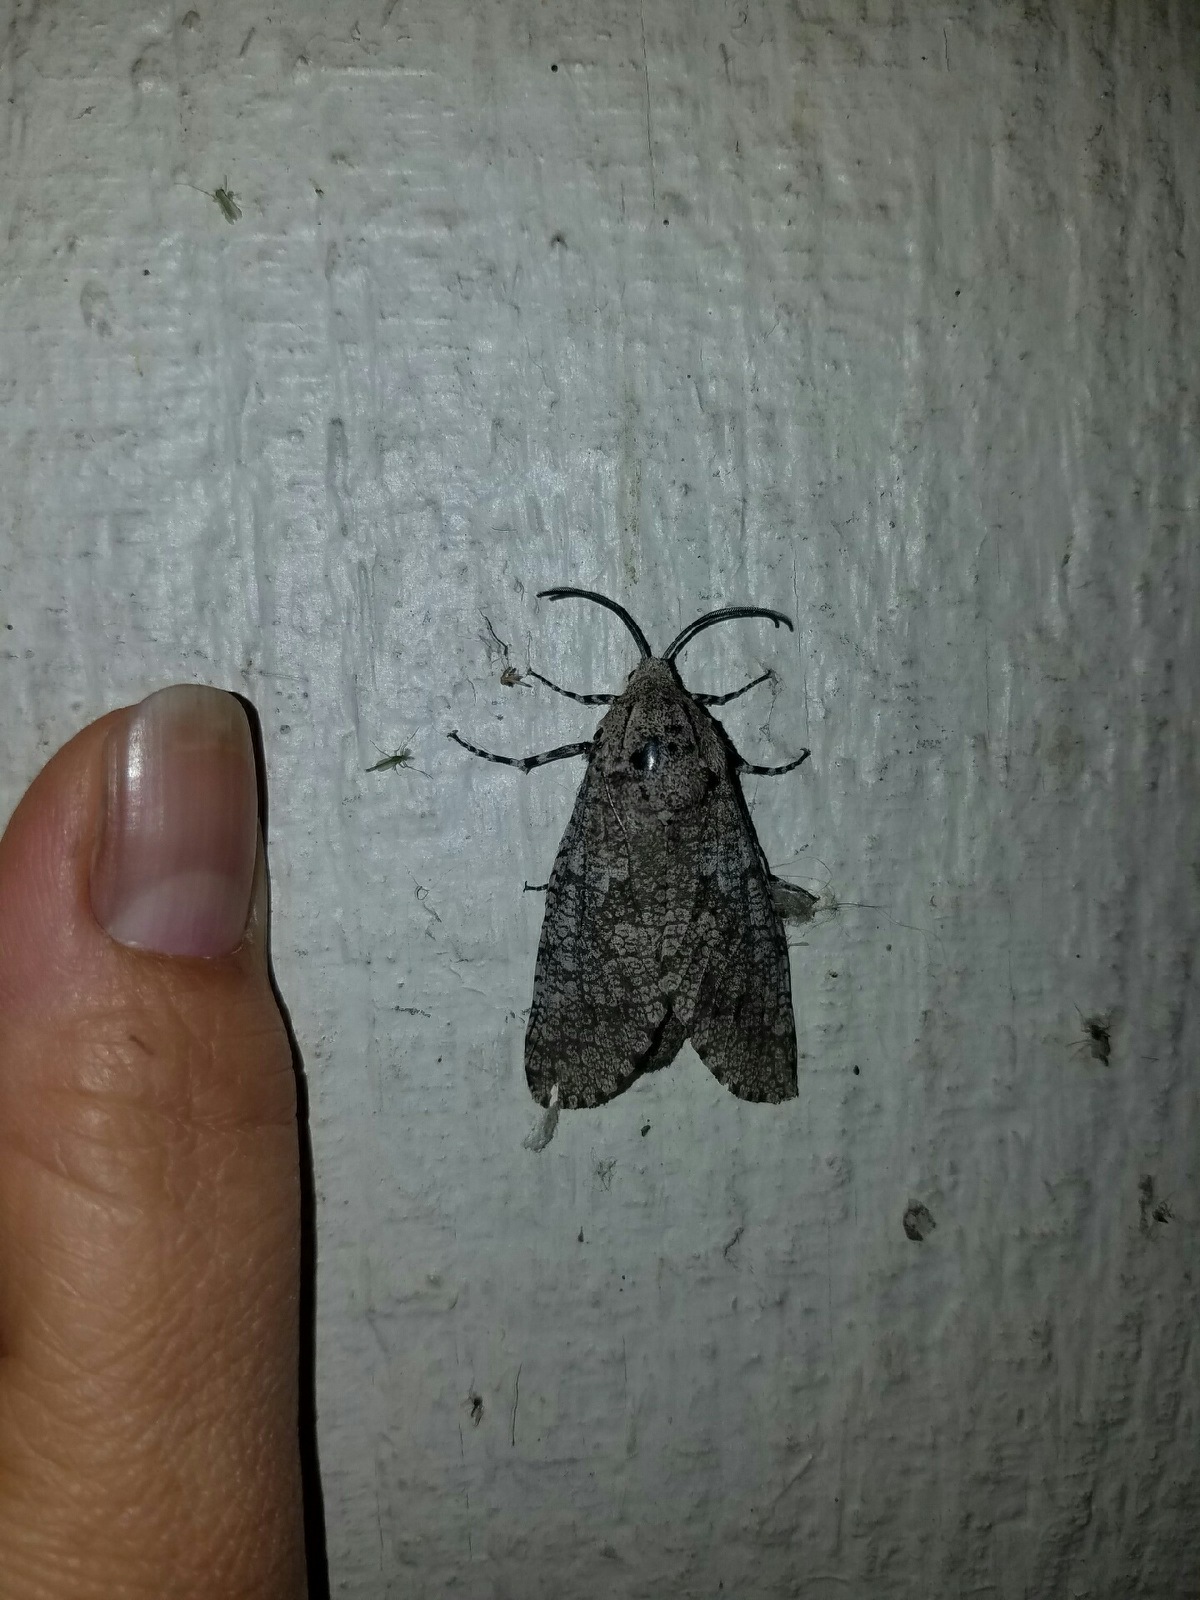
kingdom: Animalia
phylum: Arthropoda
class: Insecta
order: Lepidoptera
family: Cossidae
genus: Prionoxystus
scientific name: Prionoxystus robiniae
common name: Carpenterworm
